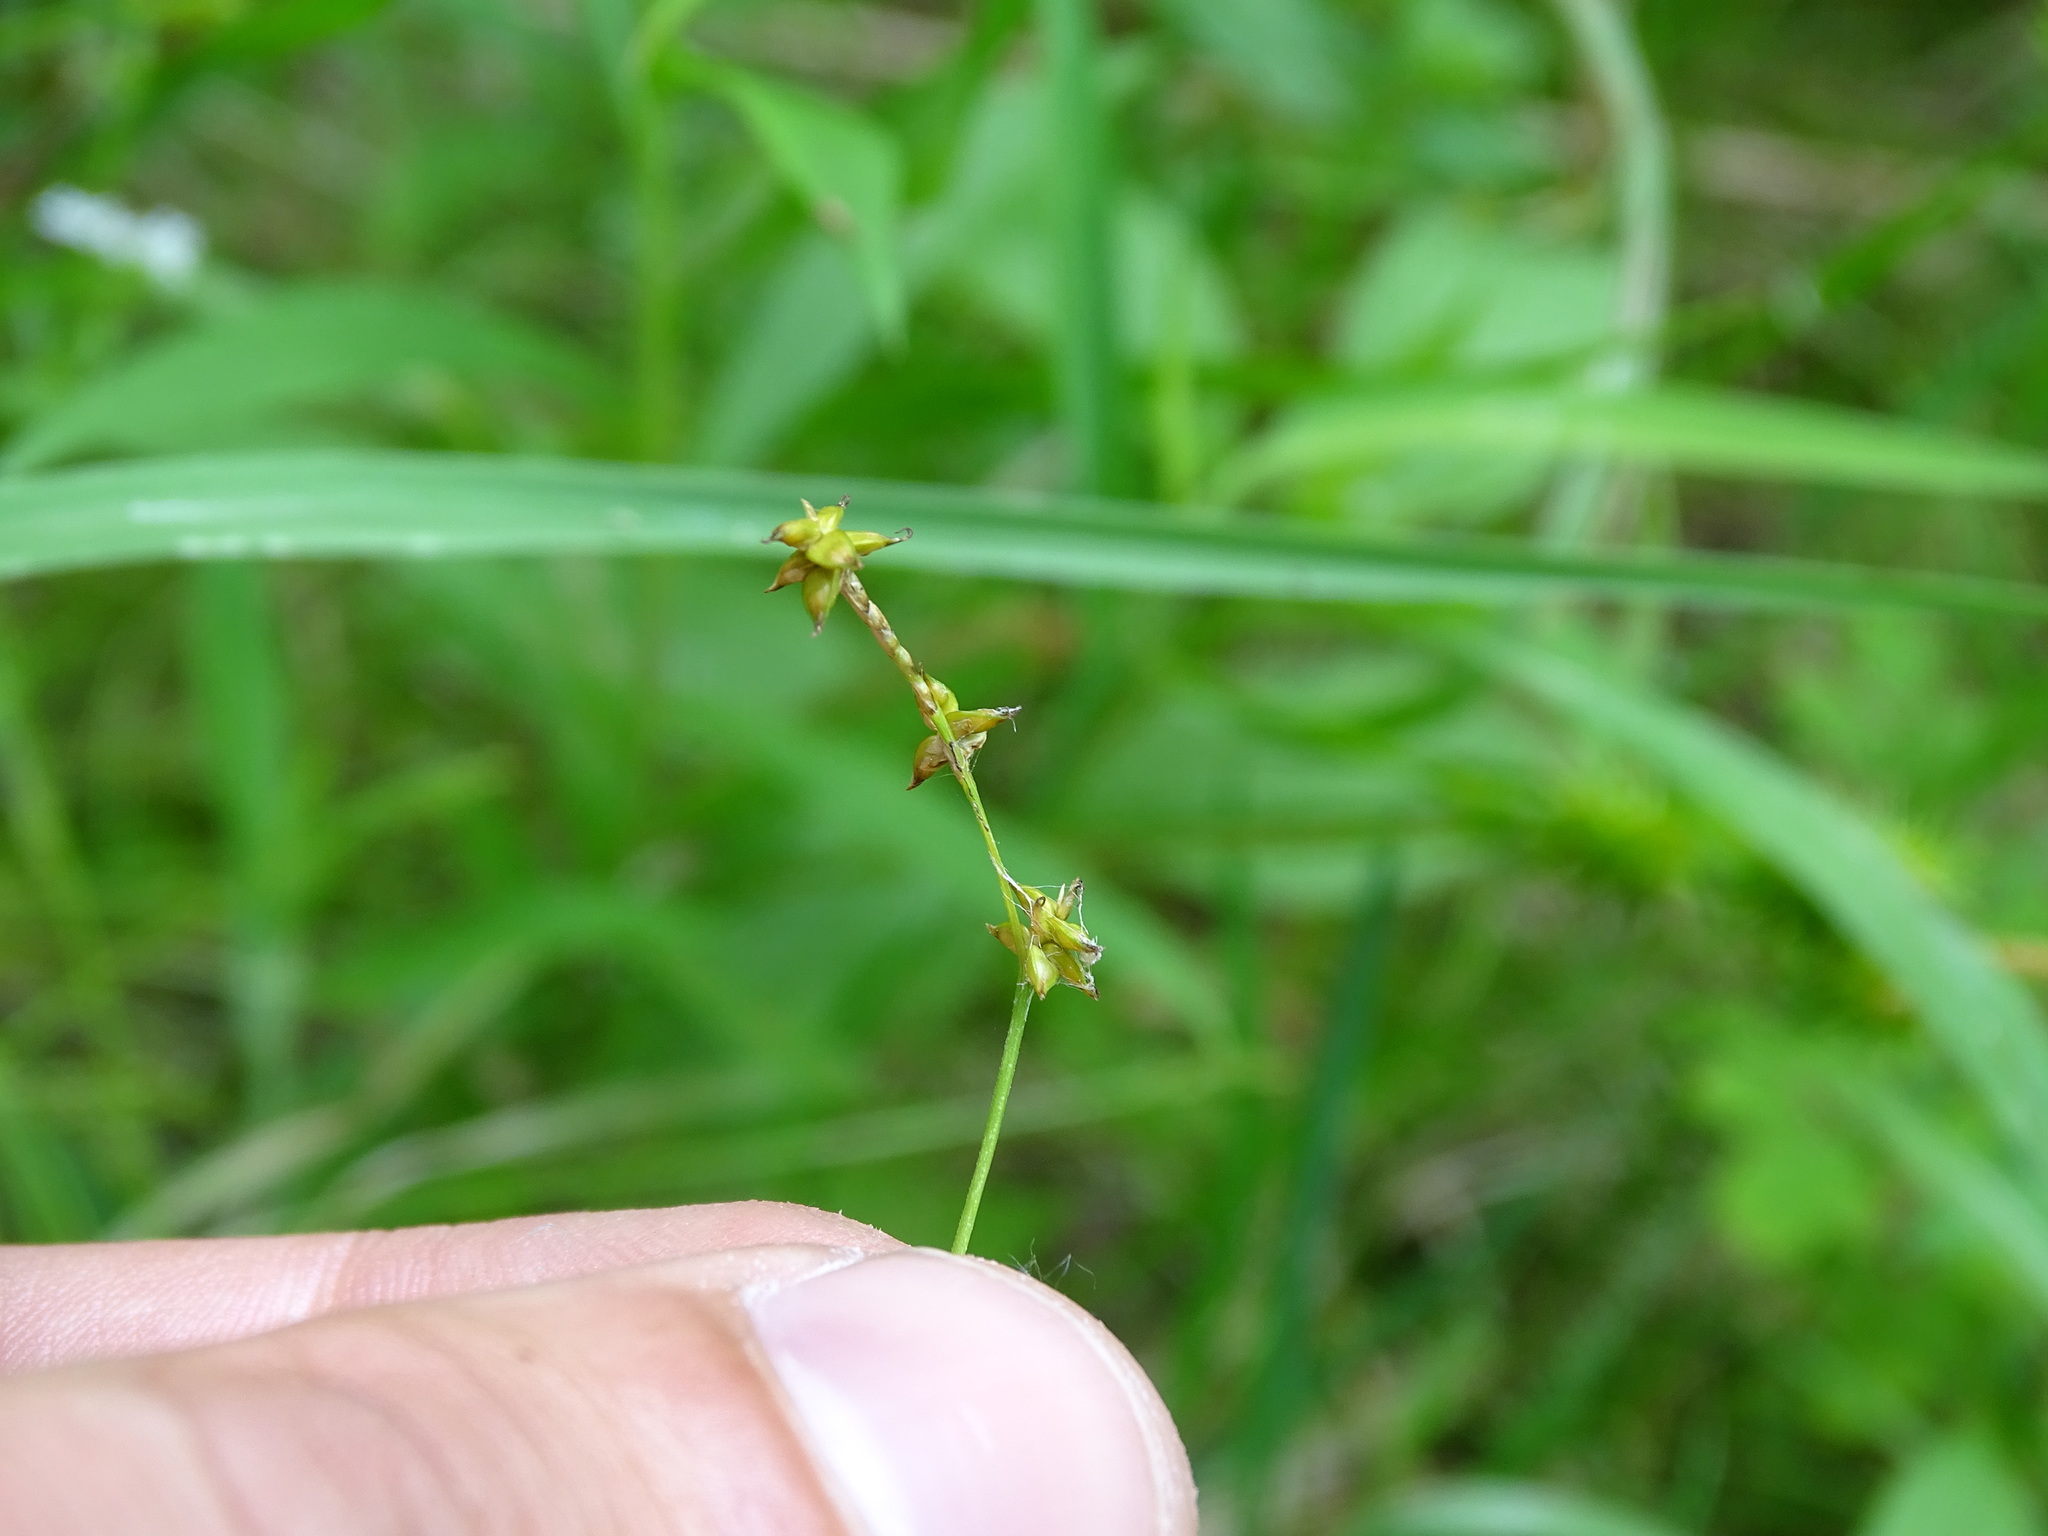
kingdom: Plantae
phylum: Tracheophyta
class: Liliopsida
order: Poales
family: Cyperaceae
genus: Carex
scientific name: Carex interior
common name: Inland sedge
